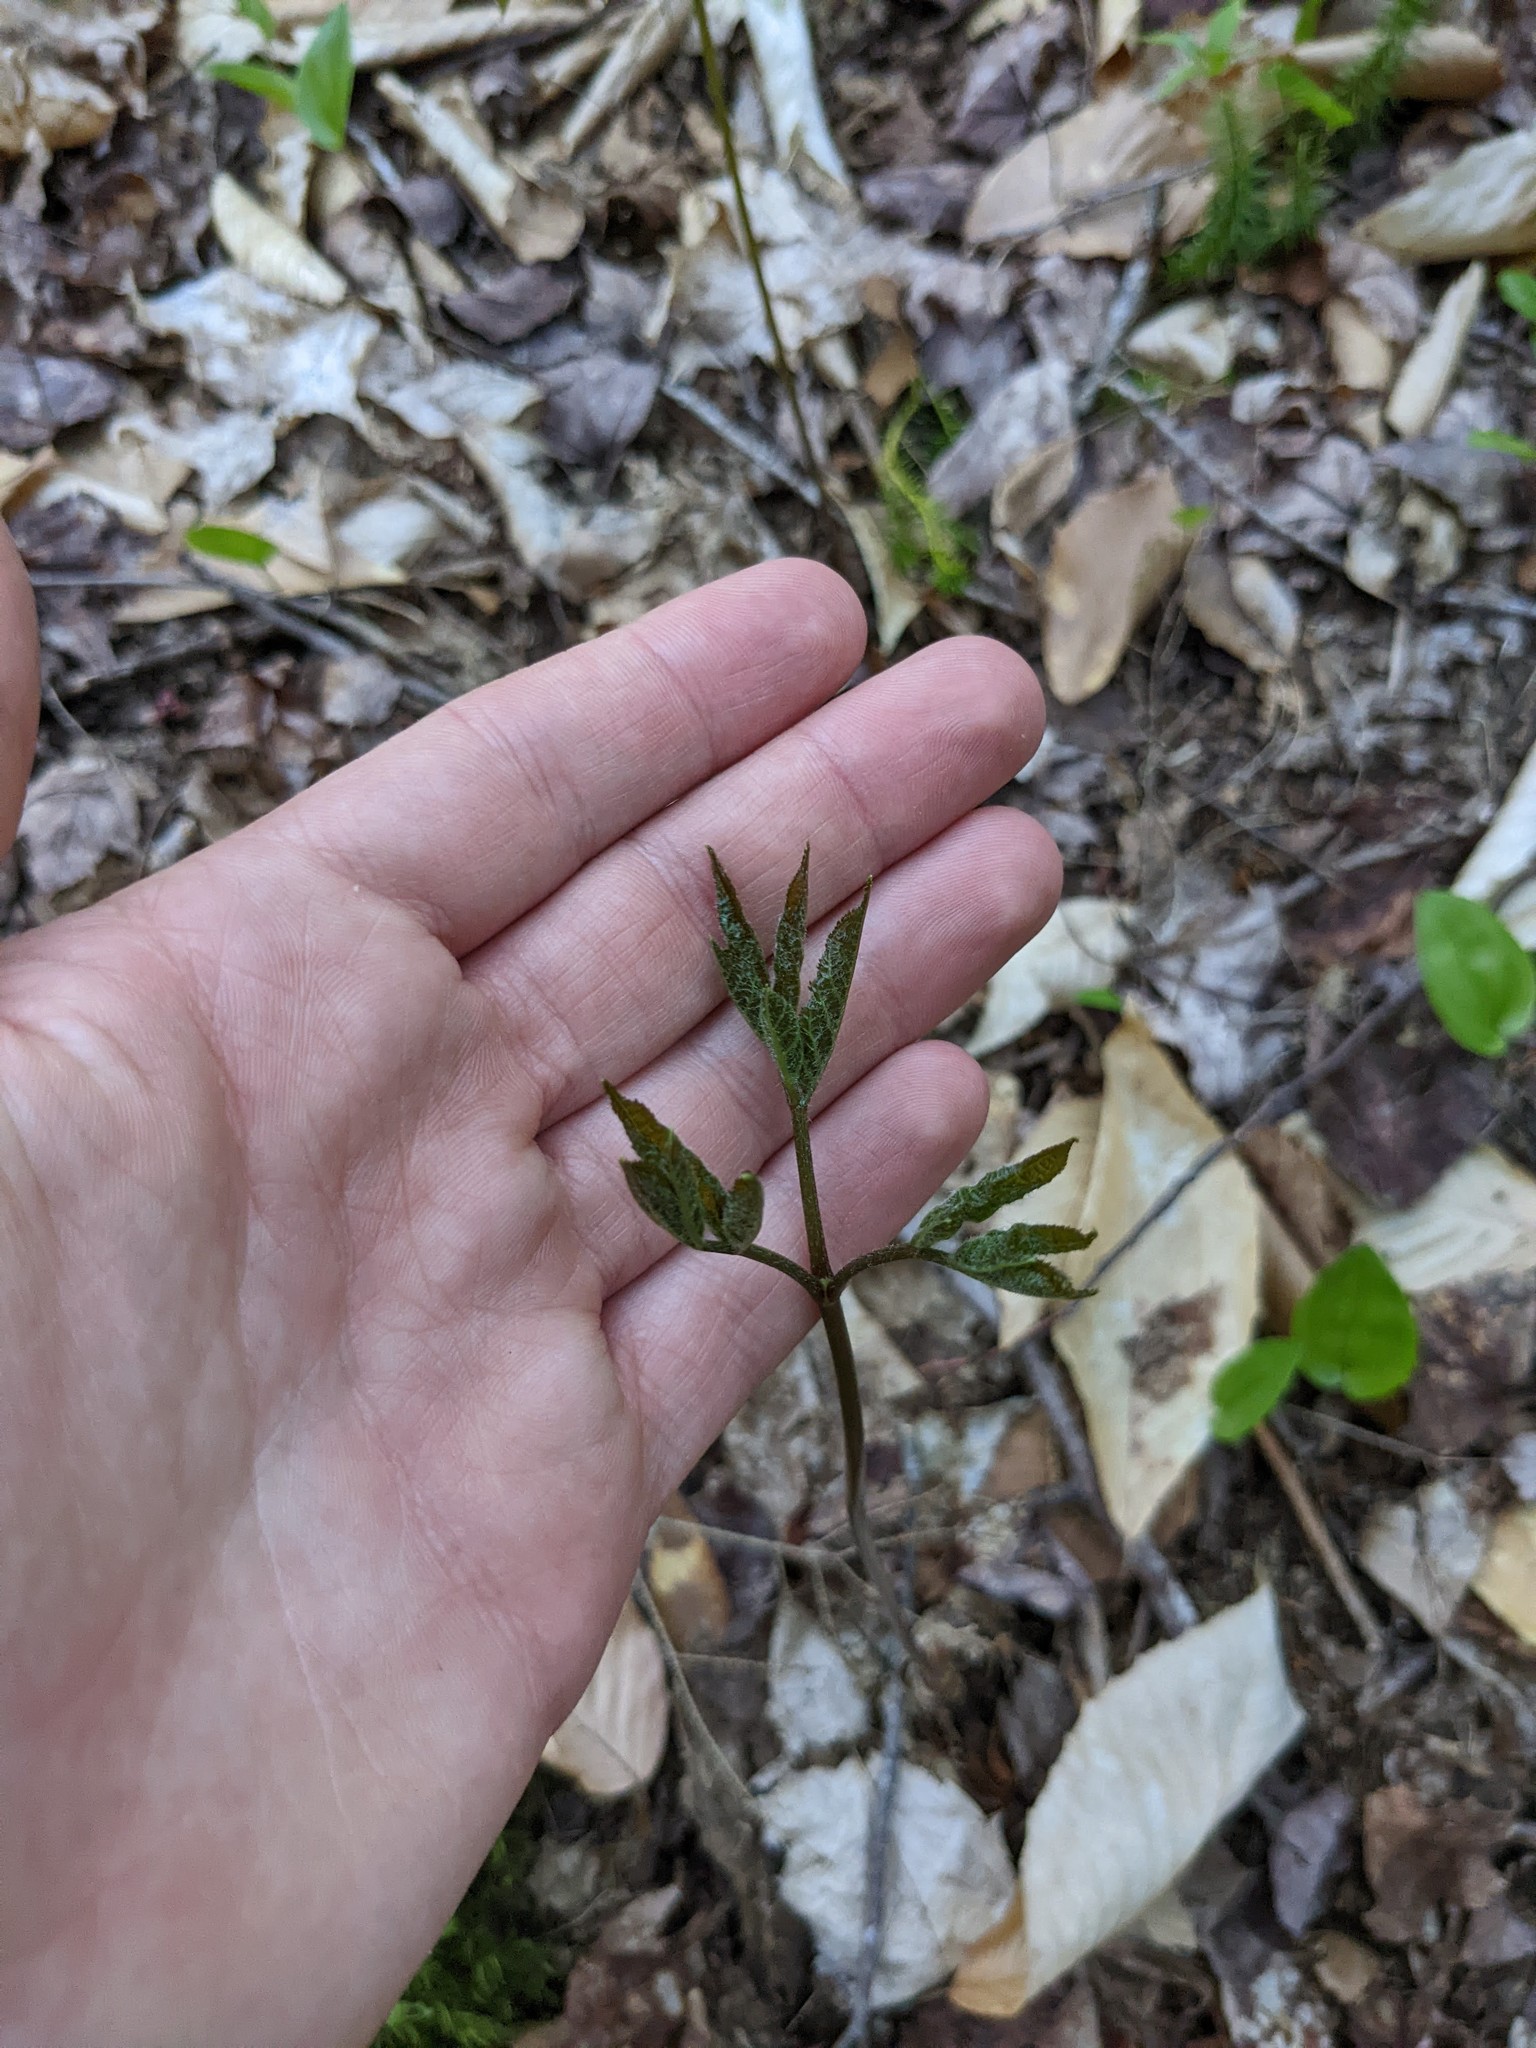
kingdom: Plantae
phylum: Tracheophyta
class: Magnoliopsida
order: Apiales
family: Araliaceae
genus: Aralia
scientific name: Aralia nudicaulis
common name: Wild sarsaparilla
